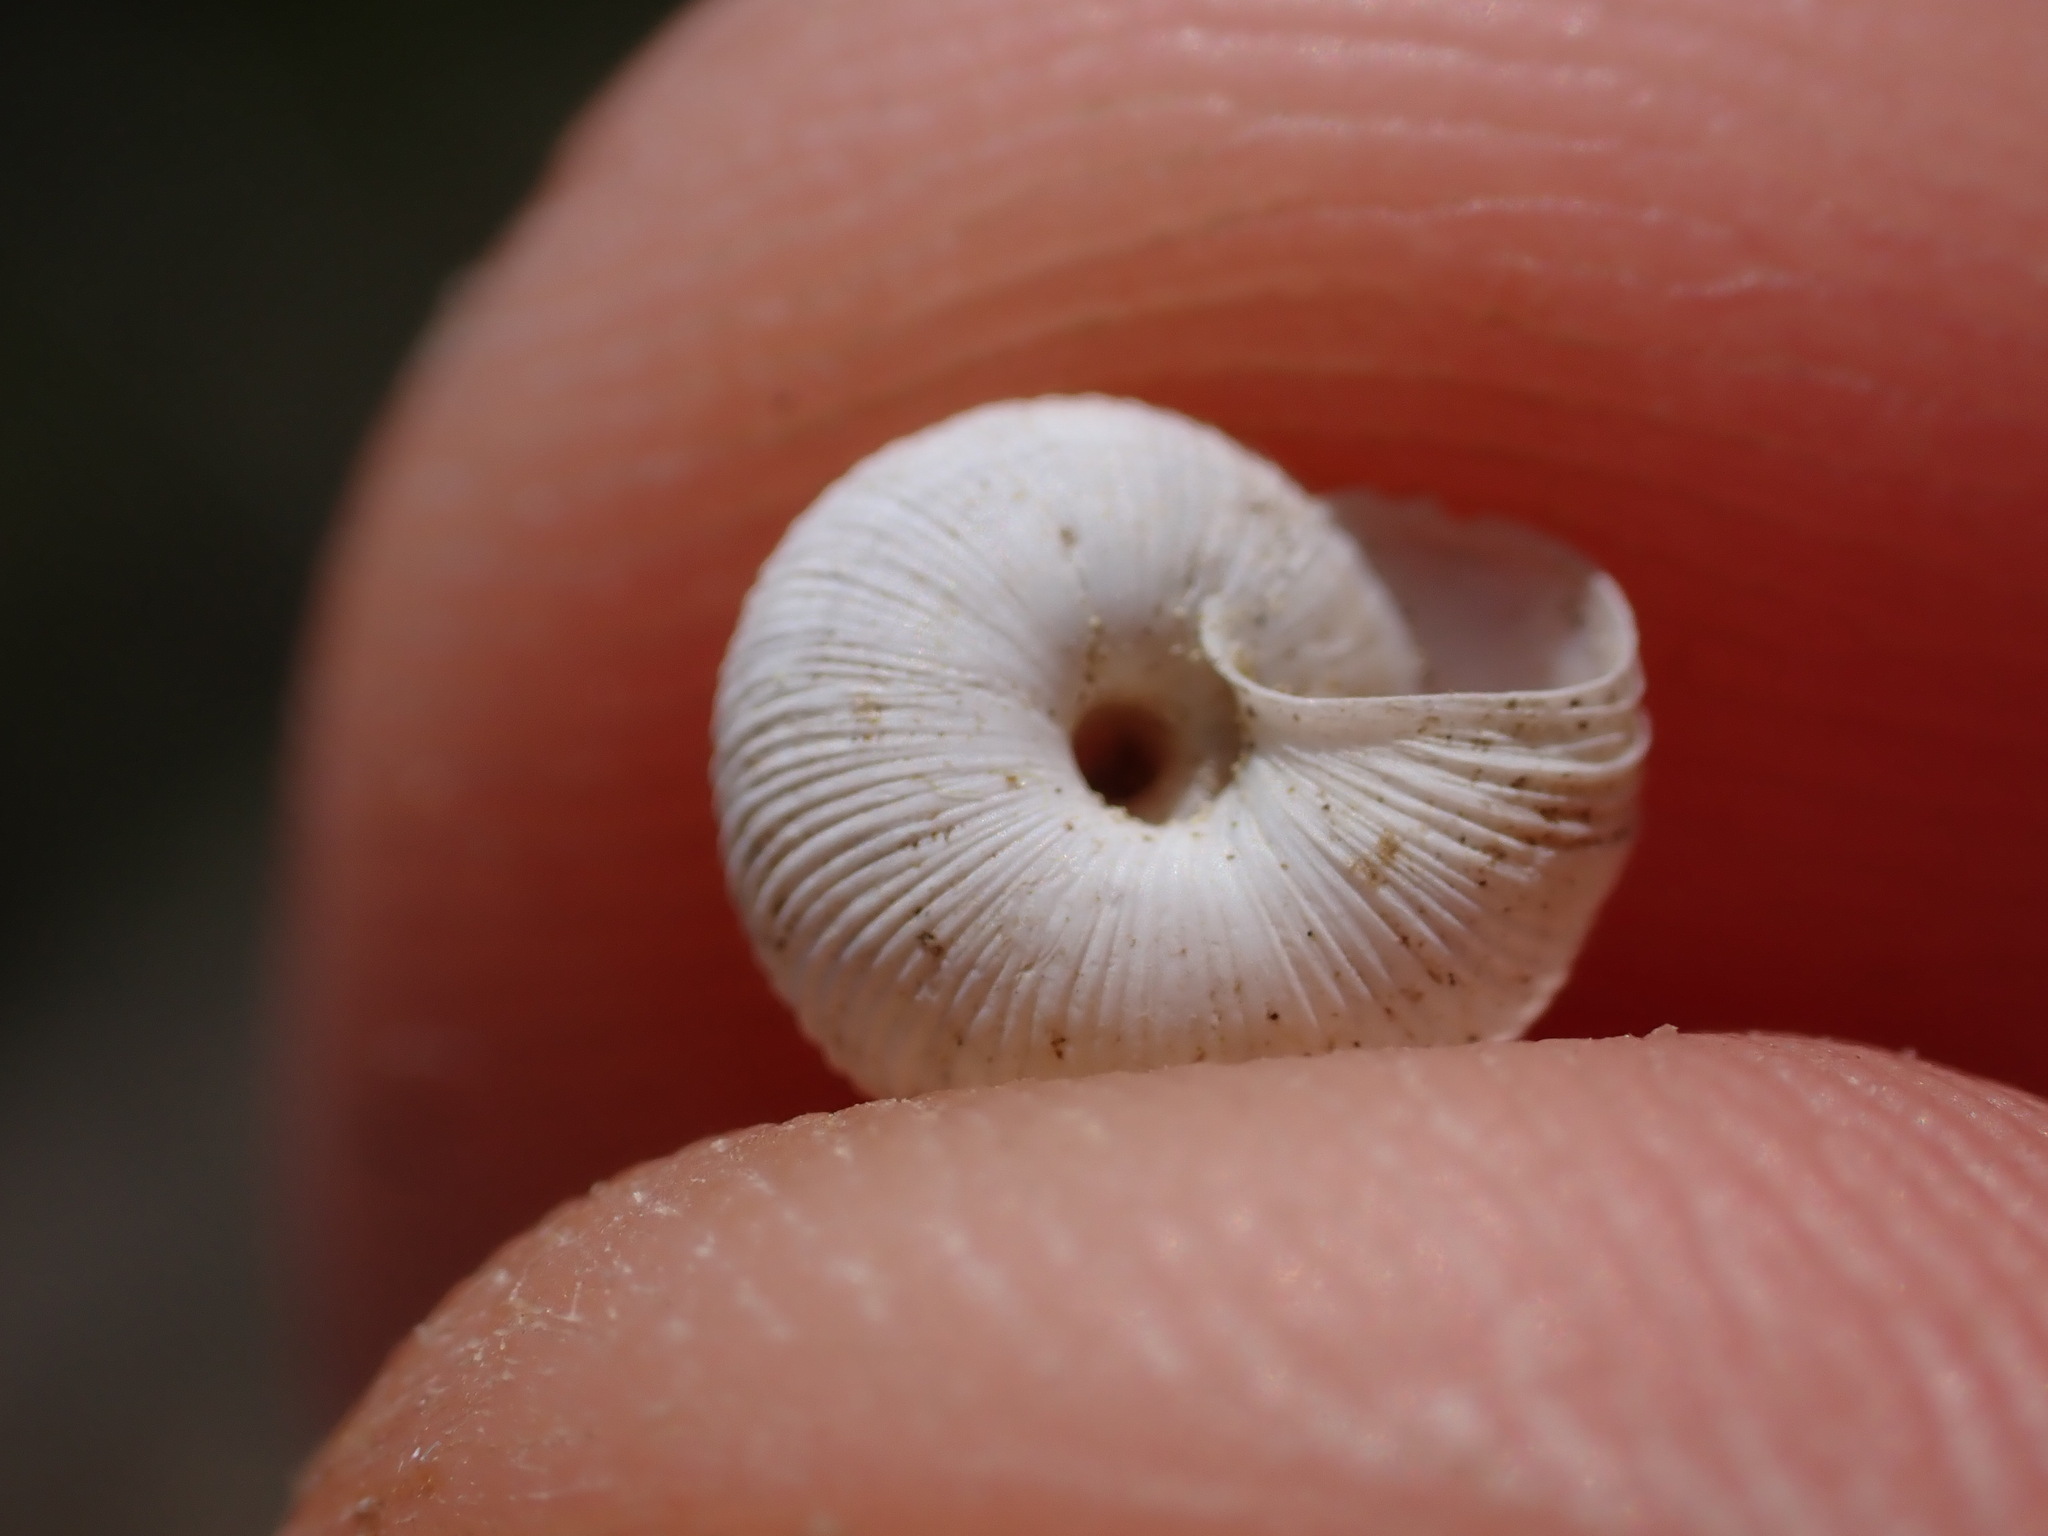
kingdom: Animalia
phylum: Mollusca
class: Gastropoda
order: Stylommatophora
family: Geomitridae
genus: Candidula
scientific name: Candidula rugosiuscula
